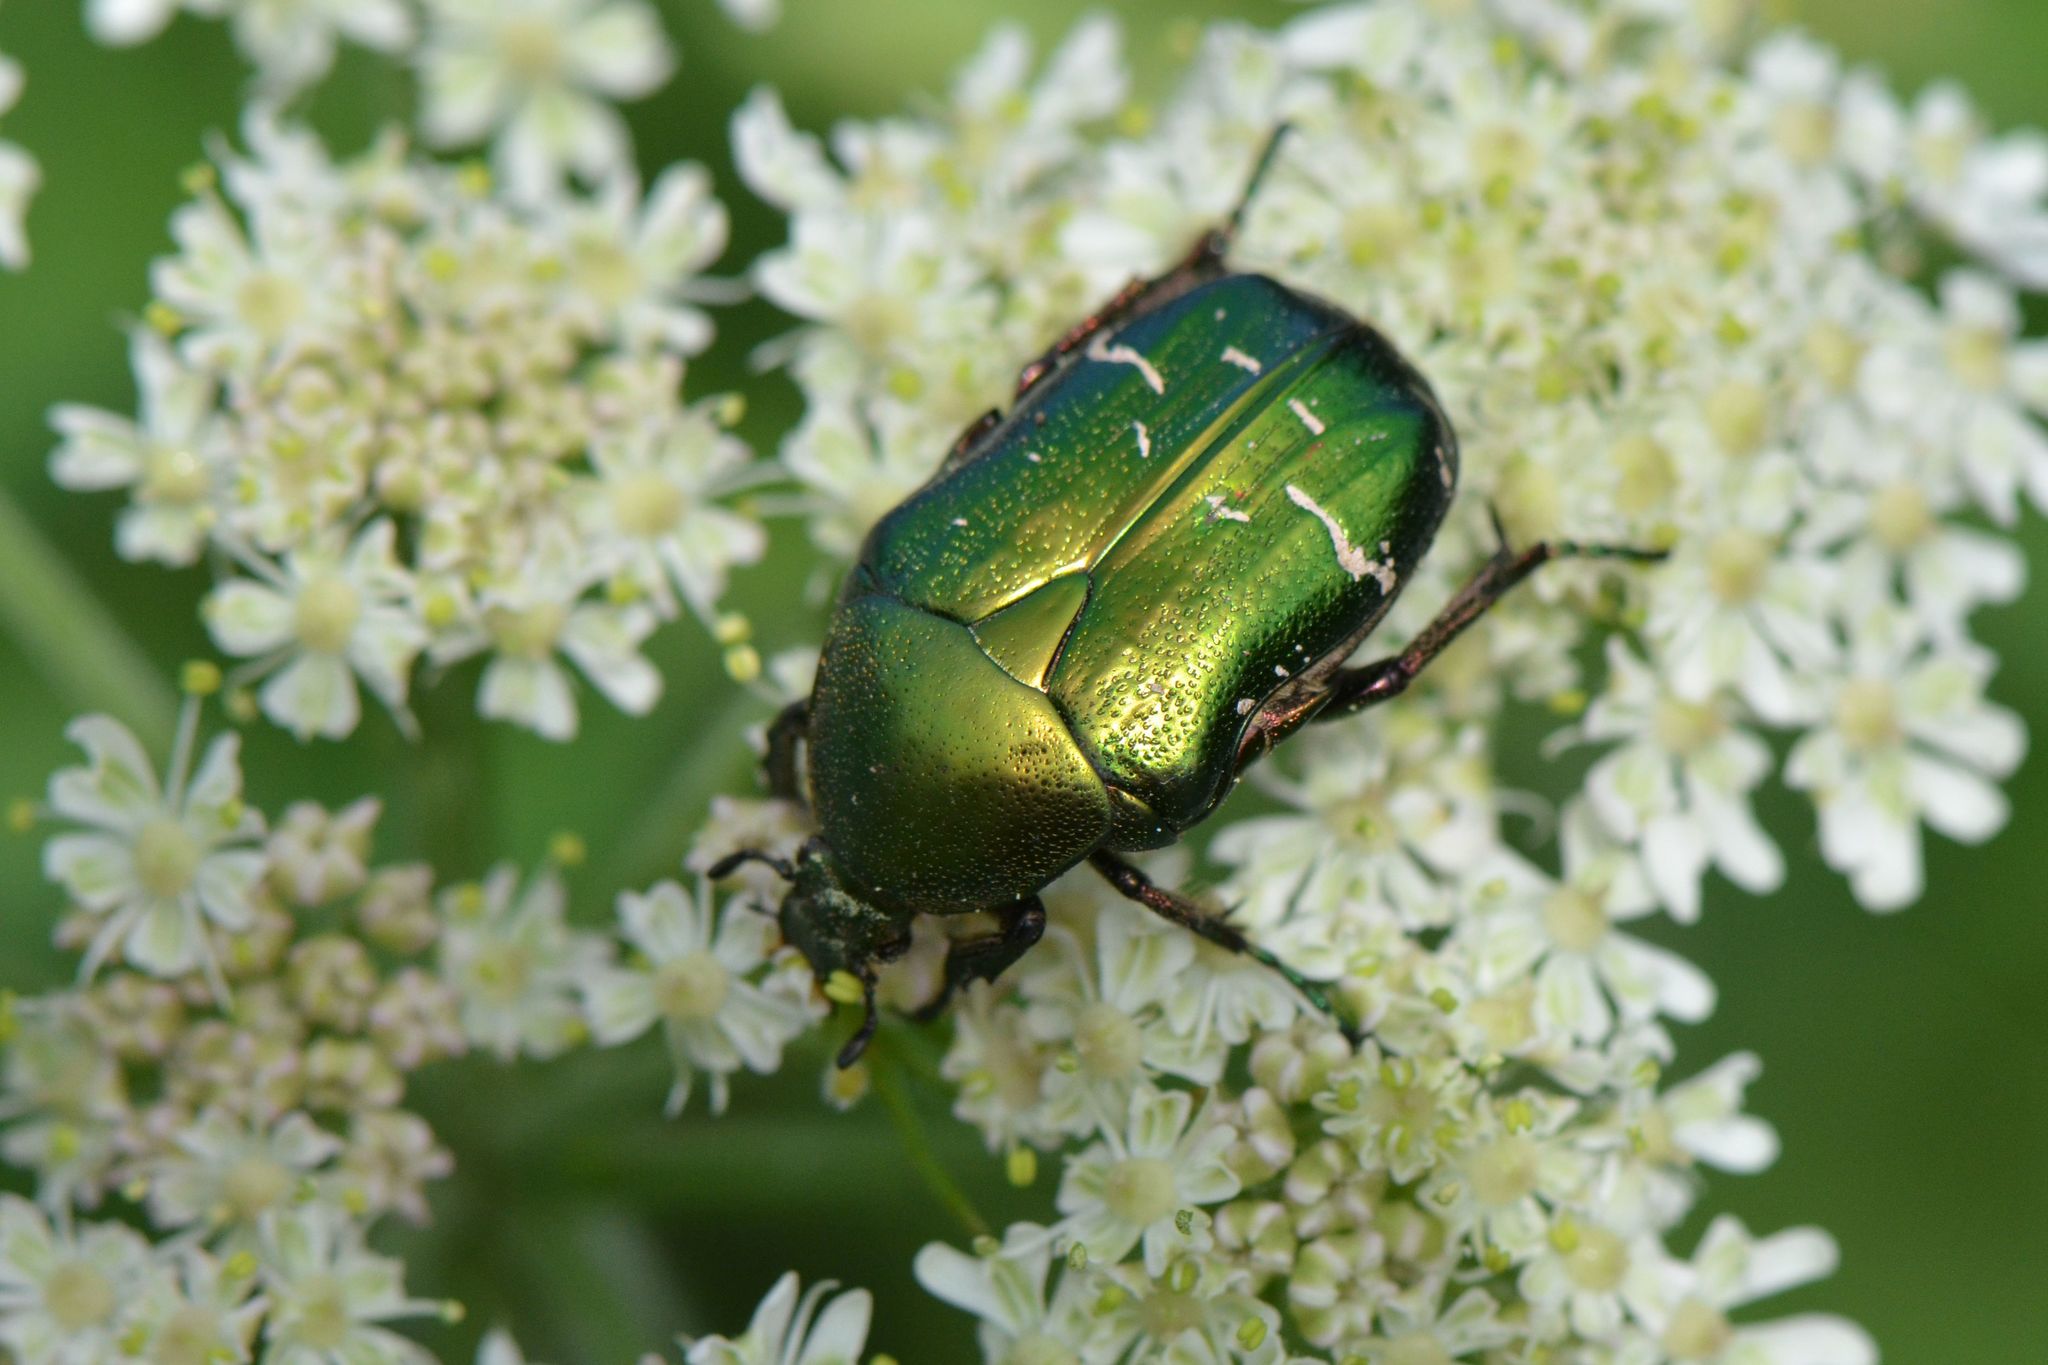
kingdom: Animalia
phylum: Arthropoda
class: Insecta
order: Coleoptera
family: Scarabaeidae
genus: Cetonia
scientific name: Cetonia aurata
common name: Rose chafer
